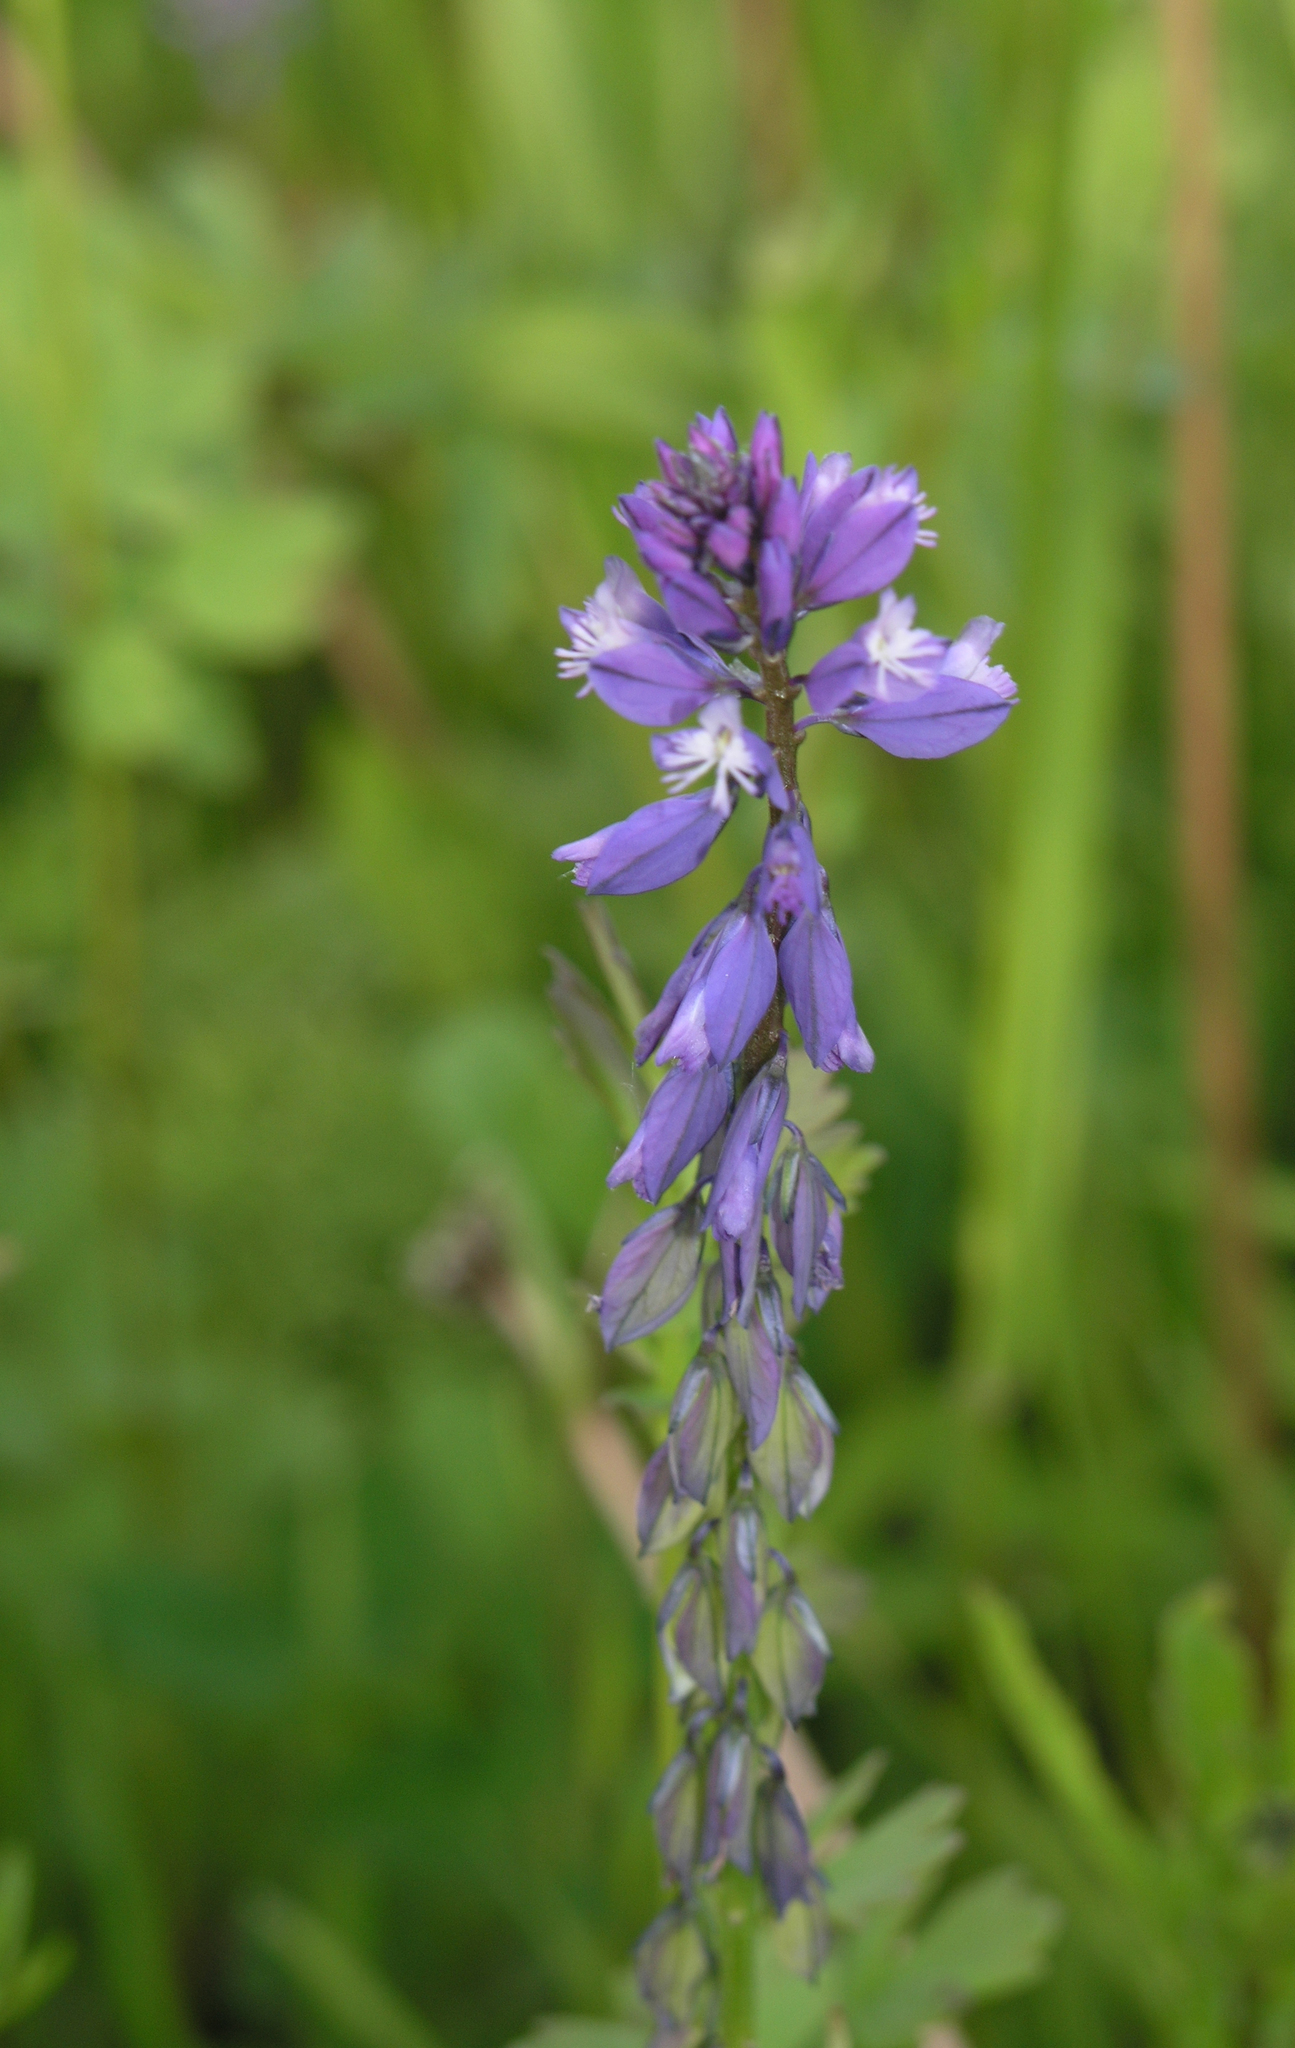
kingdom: Plantae
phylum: Tracheophyta
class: Magnoliopsida
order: Fabales
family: Polygalaceae
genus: Polygala
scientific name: Polygala comosa
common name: Tufted milkwort
